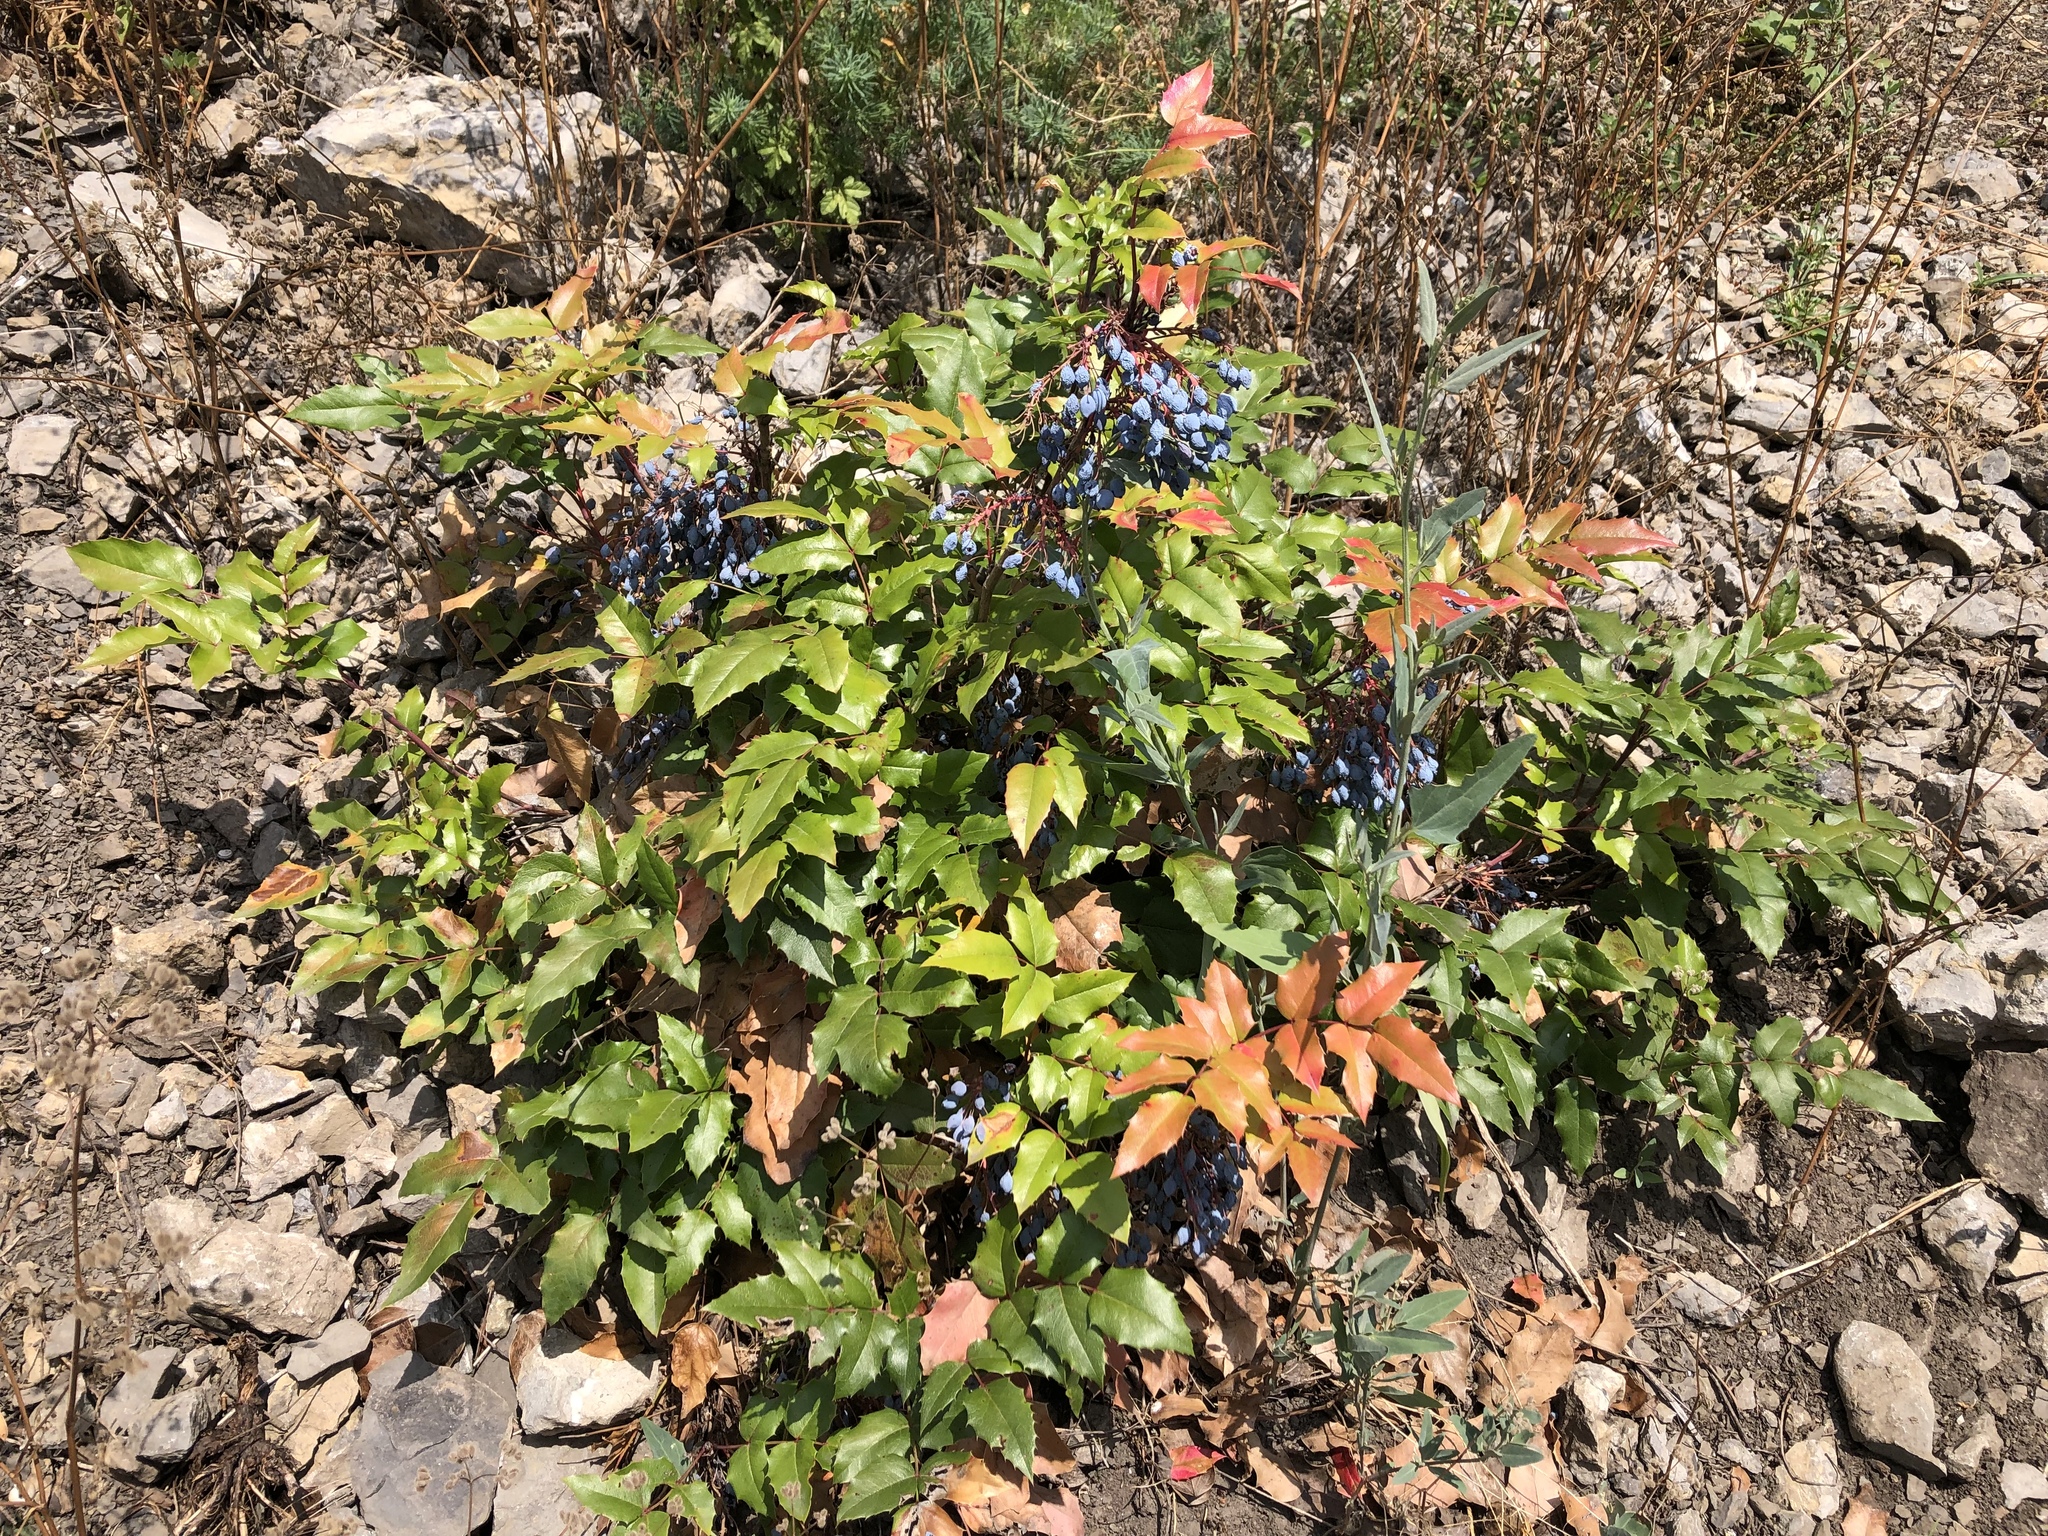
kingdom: Plantae
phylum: Tracheophyta
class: Magnoliopsida
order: Ranunculales
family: Berberidaceae
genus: Mahonia
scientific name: Mahonia aquifolium
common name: Oregon-grape
